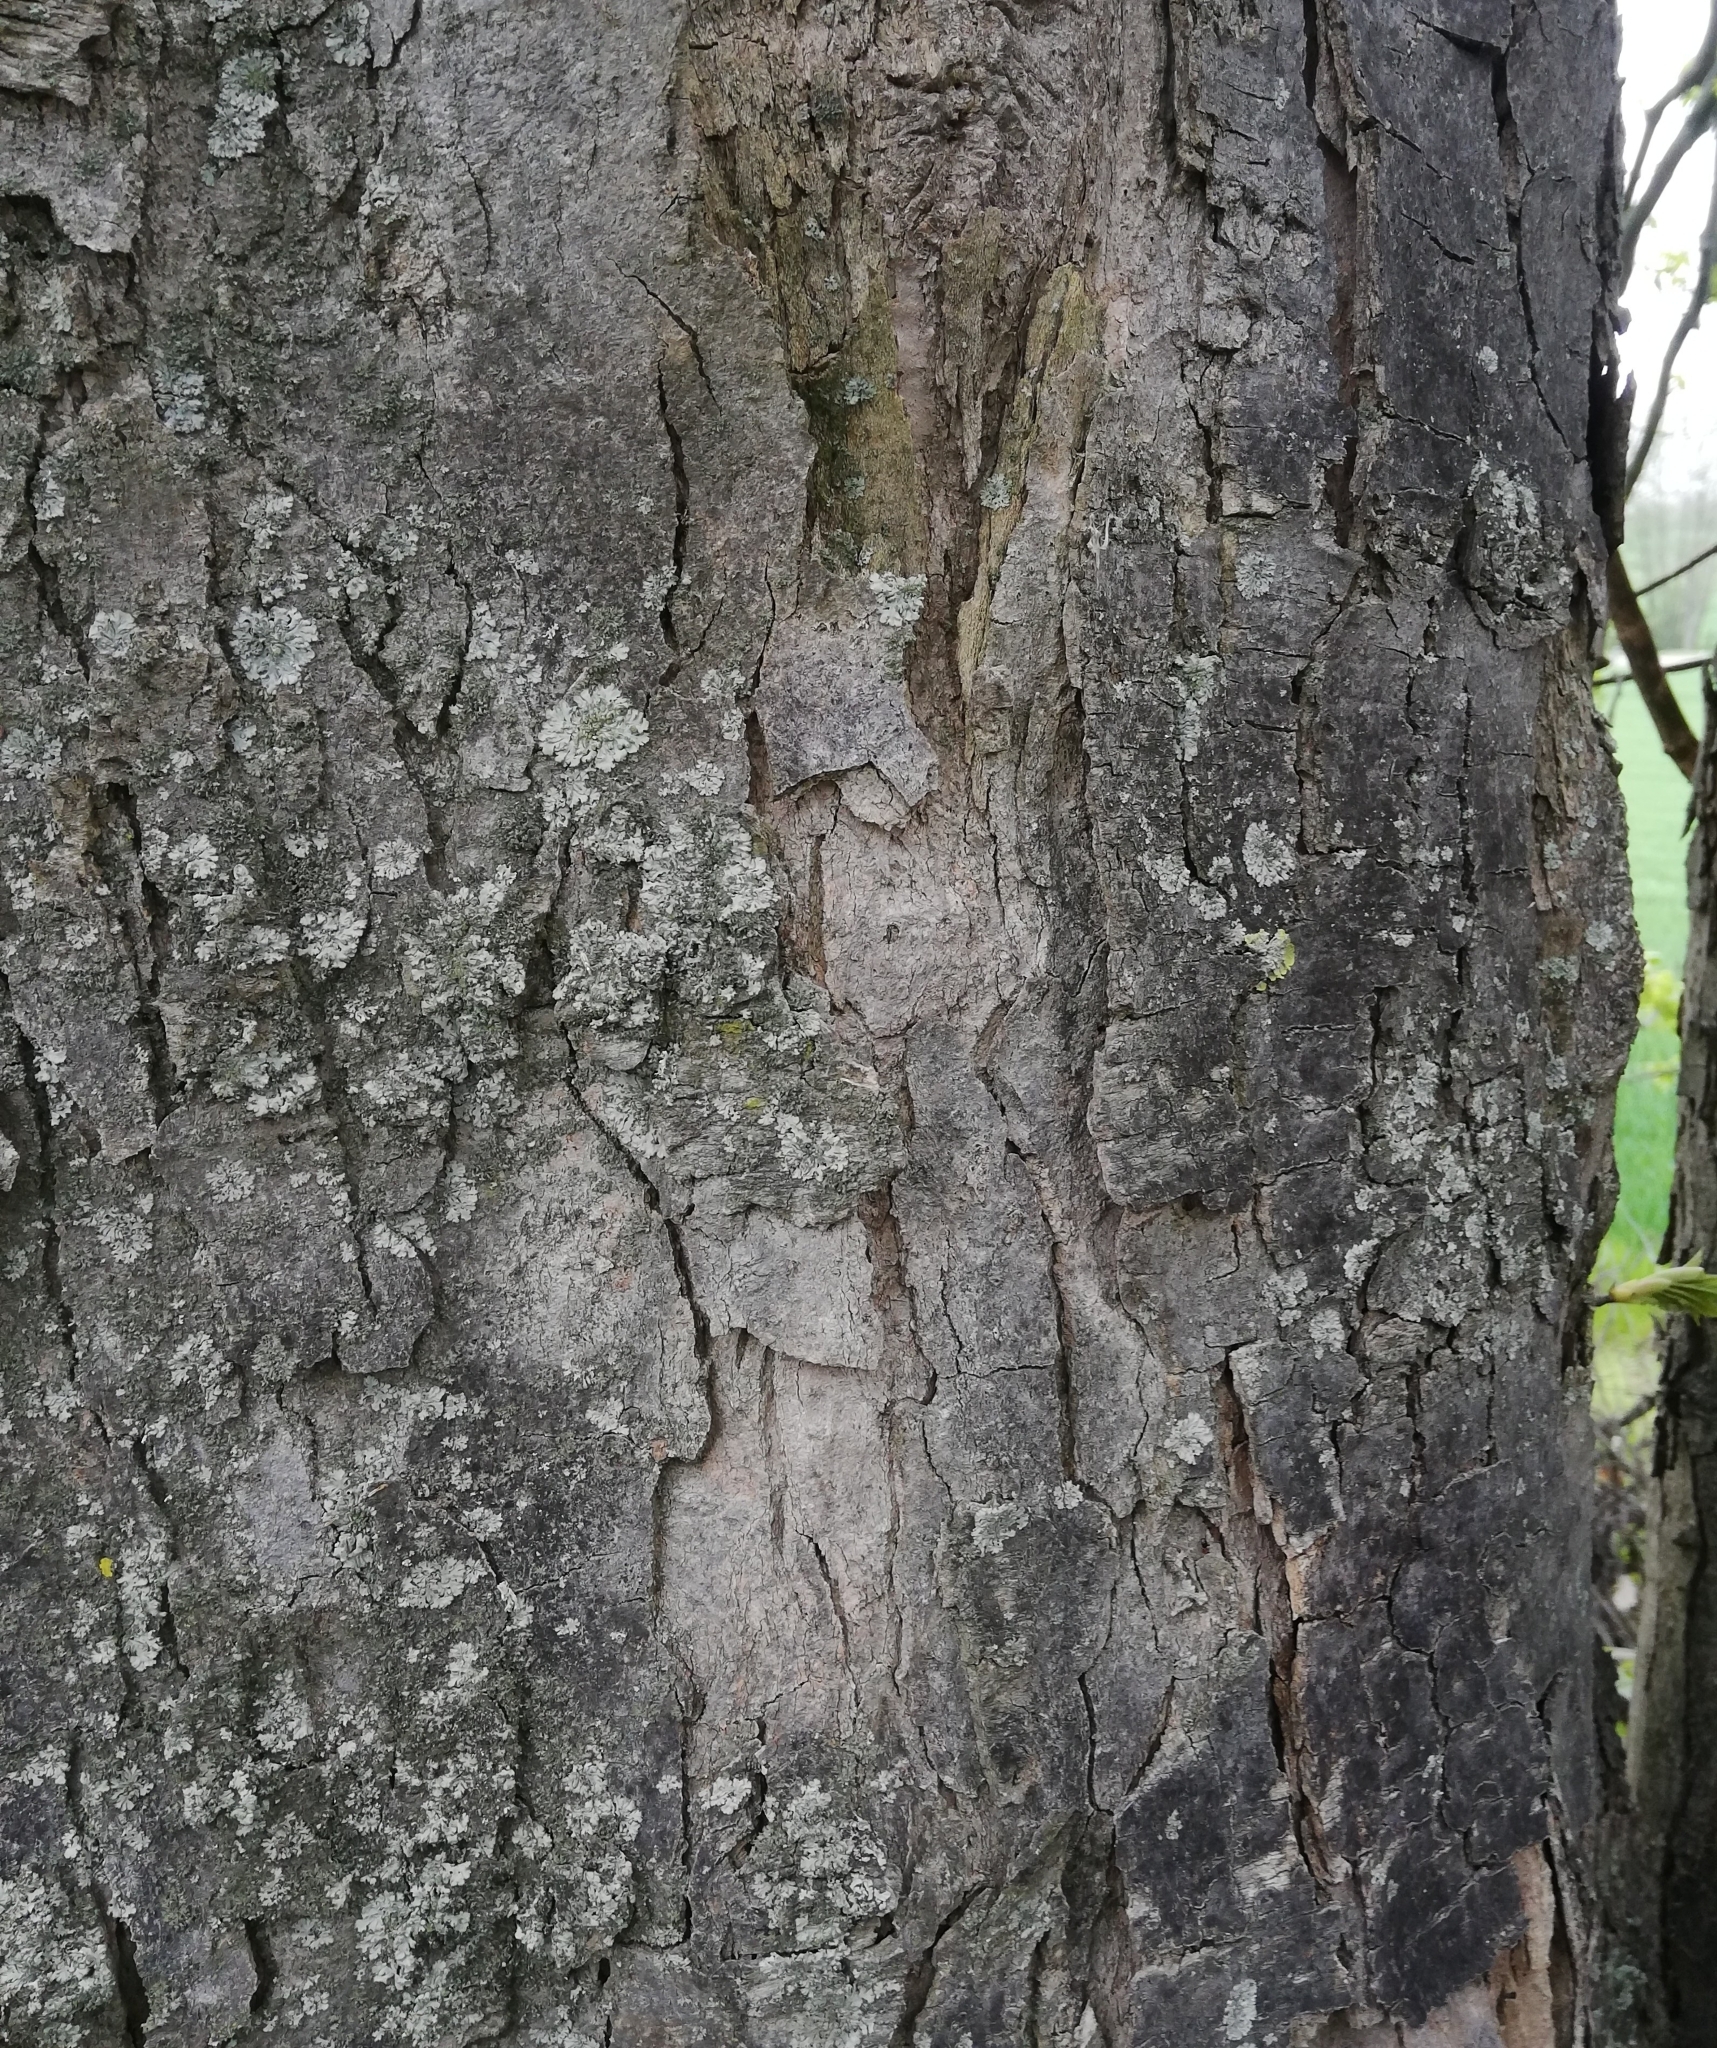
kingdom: Plantae
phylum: Tracheophyta
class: Magnoliopsida
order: Sapindales
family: Sapindaceae
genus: Acer
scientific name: Acer pseudoplatanus
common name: Sycamore
